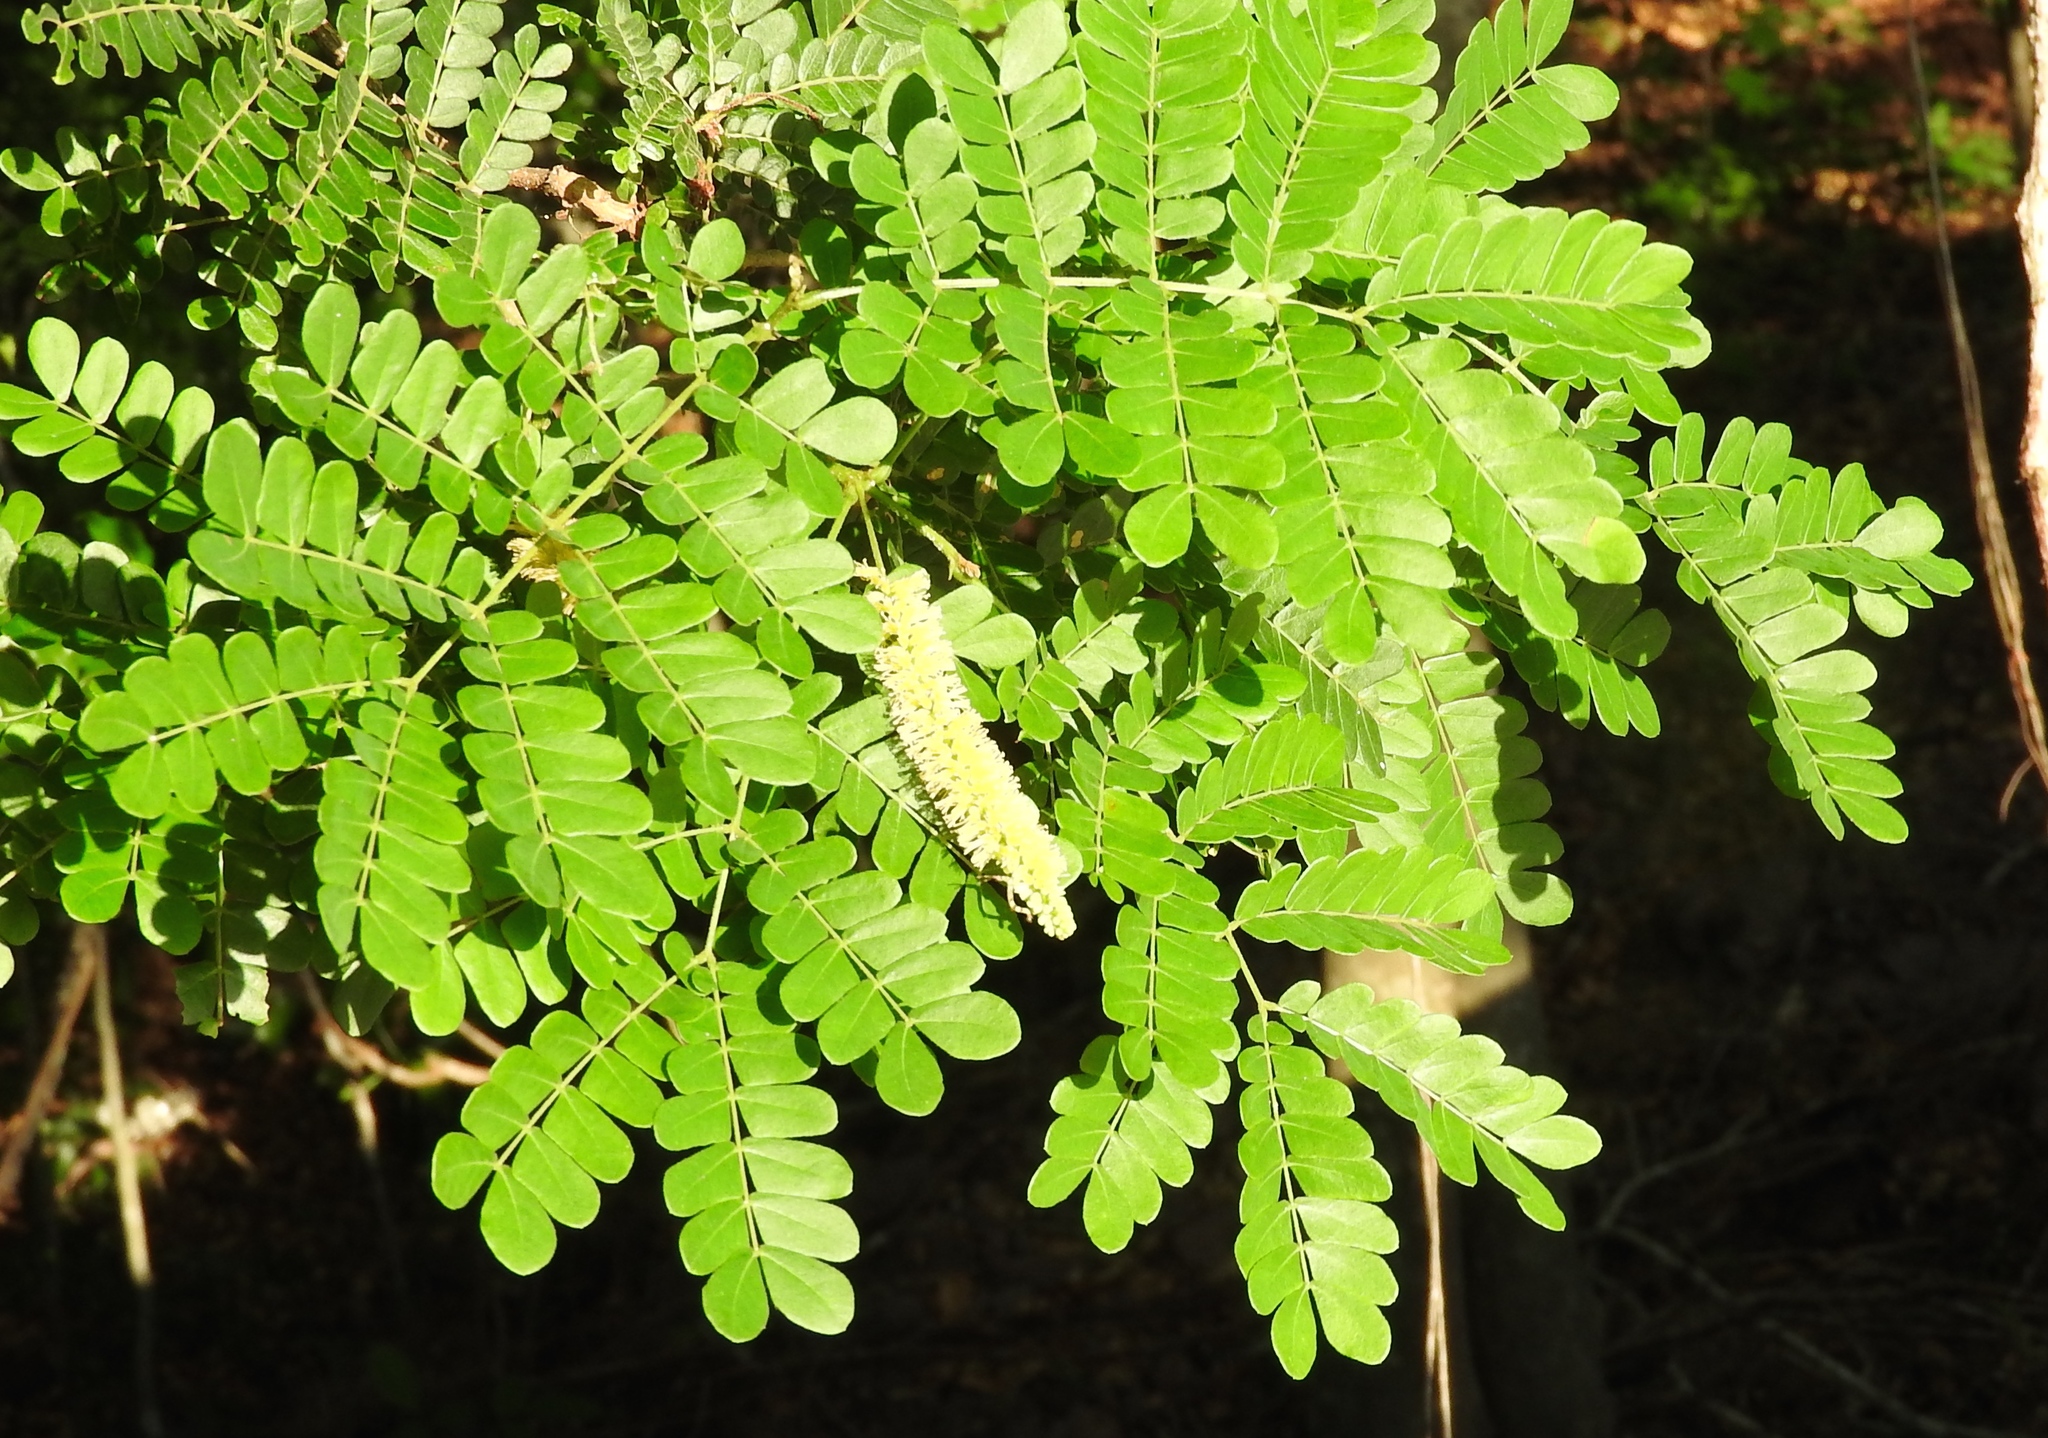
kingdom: Plantae
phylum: Tracheophyta
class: Magnoliopsida
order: Fabales
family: Fabaceae
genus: Pityrocarpa
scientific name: Pityrocarpa obliqua
